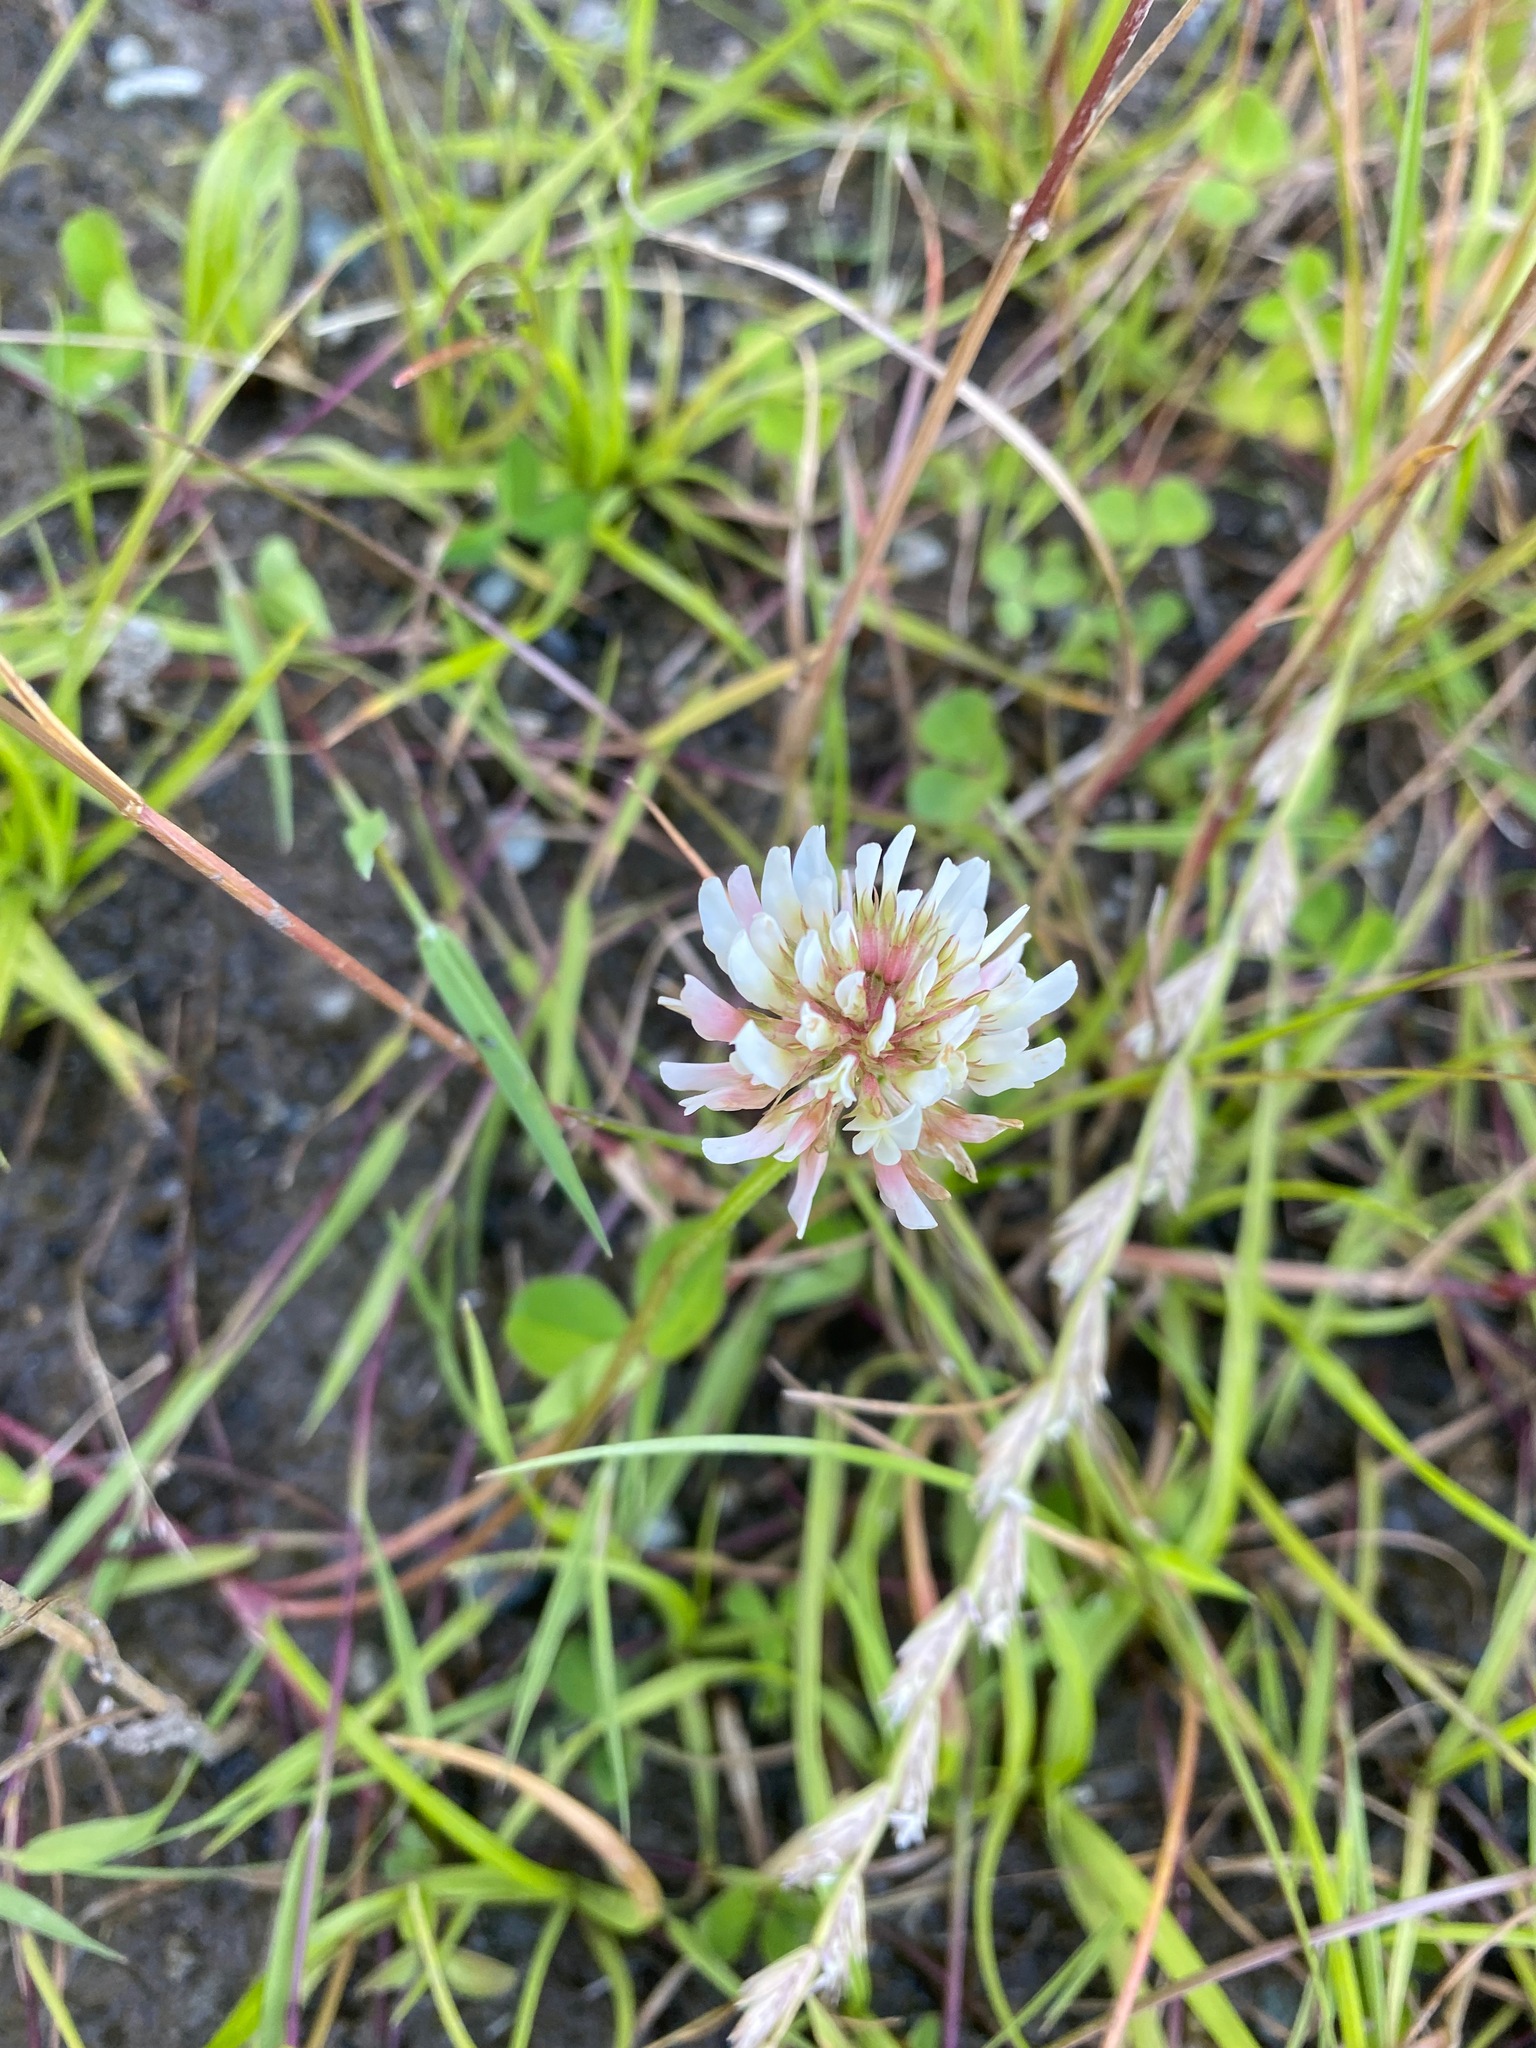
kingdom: Plantae
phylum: Tracheophyta
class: Magnoliopsida
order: Fabales
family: Fabaceae
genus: Trifolium
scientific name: Trifolium repens
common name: White clover
